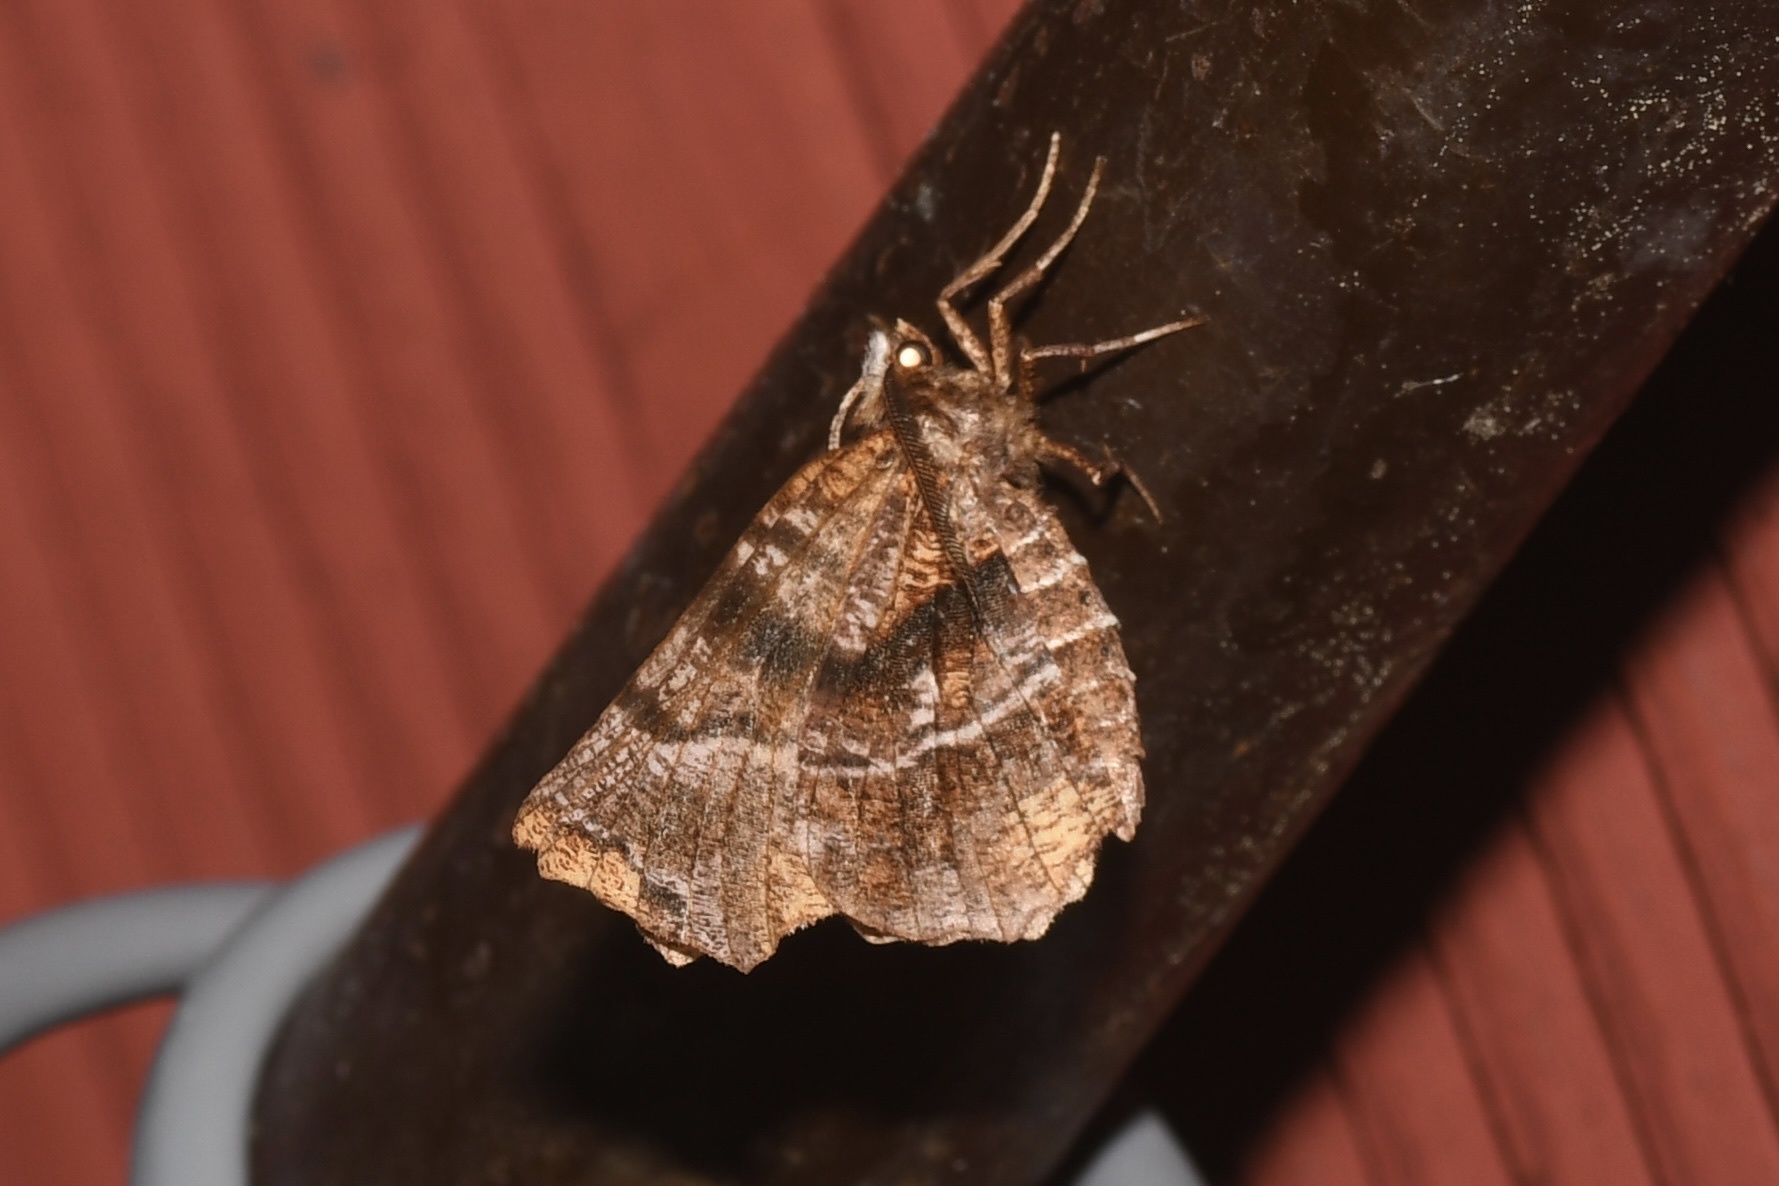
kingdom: Animalia
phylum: Arthropoda
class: Insecta
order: Lepidoptera
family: Geometridae
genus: Selenia
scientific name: Selenia alciphearia
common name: Brown-tipped thorn
